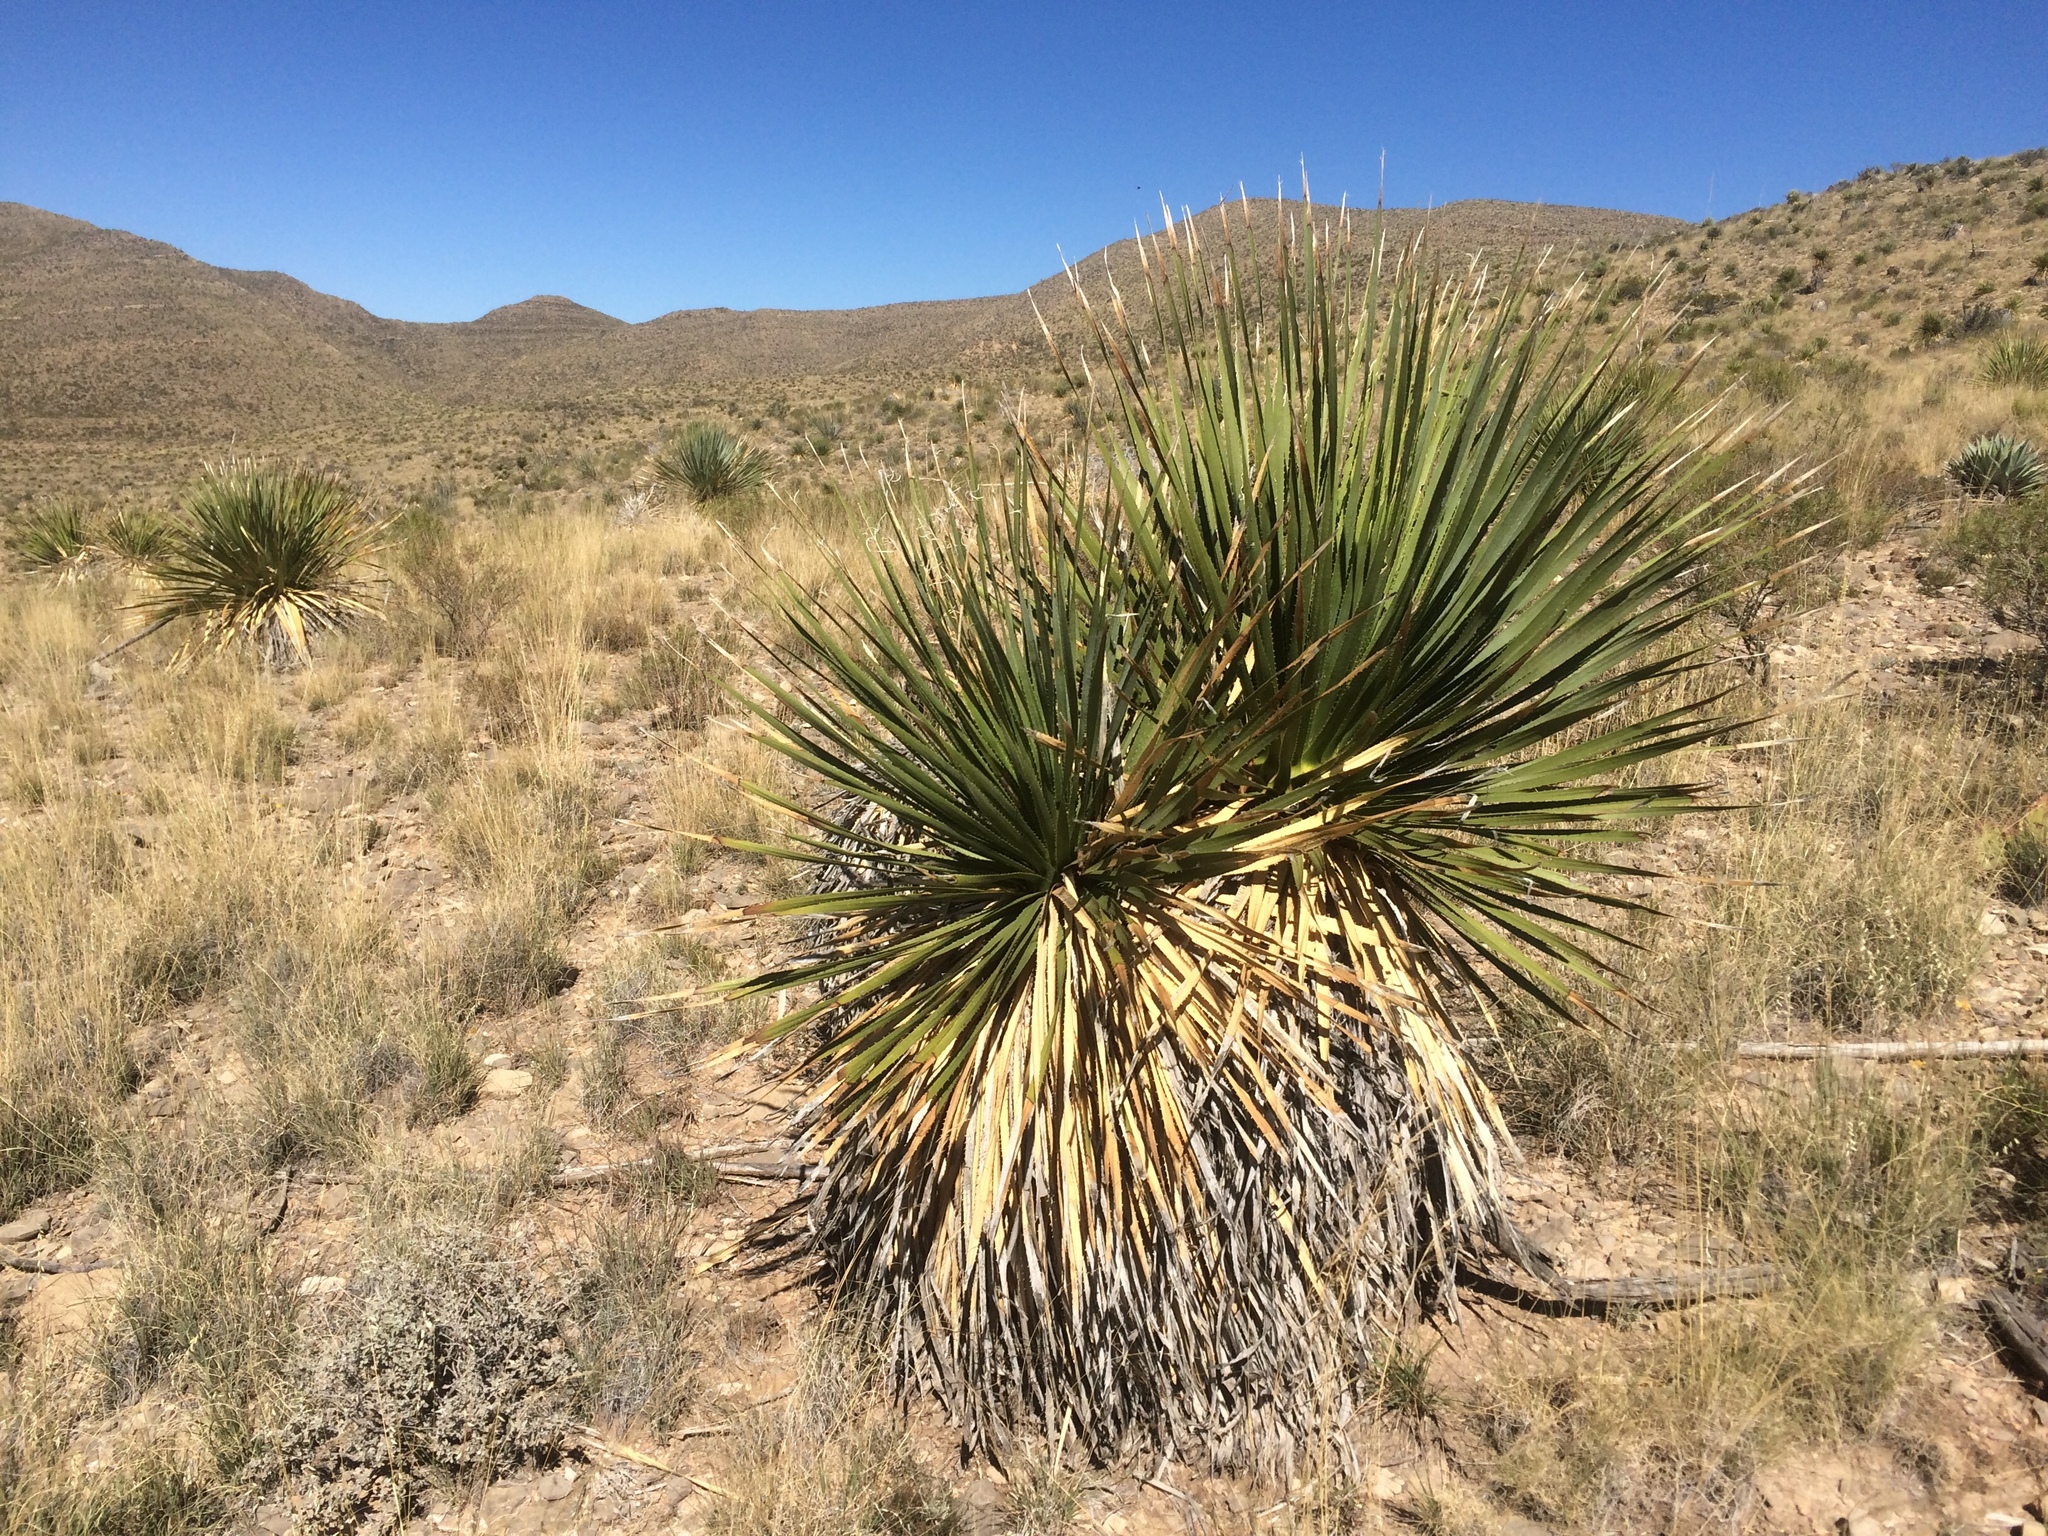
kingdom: Plantae
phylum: Tracheophyta
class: Liliopsida
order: Asparagales
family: Asparagaceae
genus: Dasylirion
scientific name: Dasylirion wheeleri
